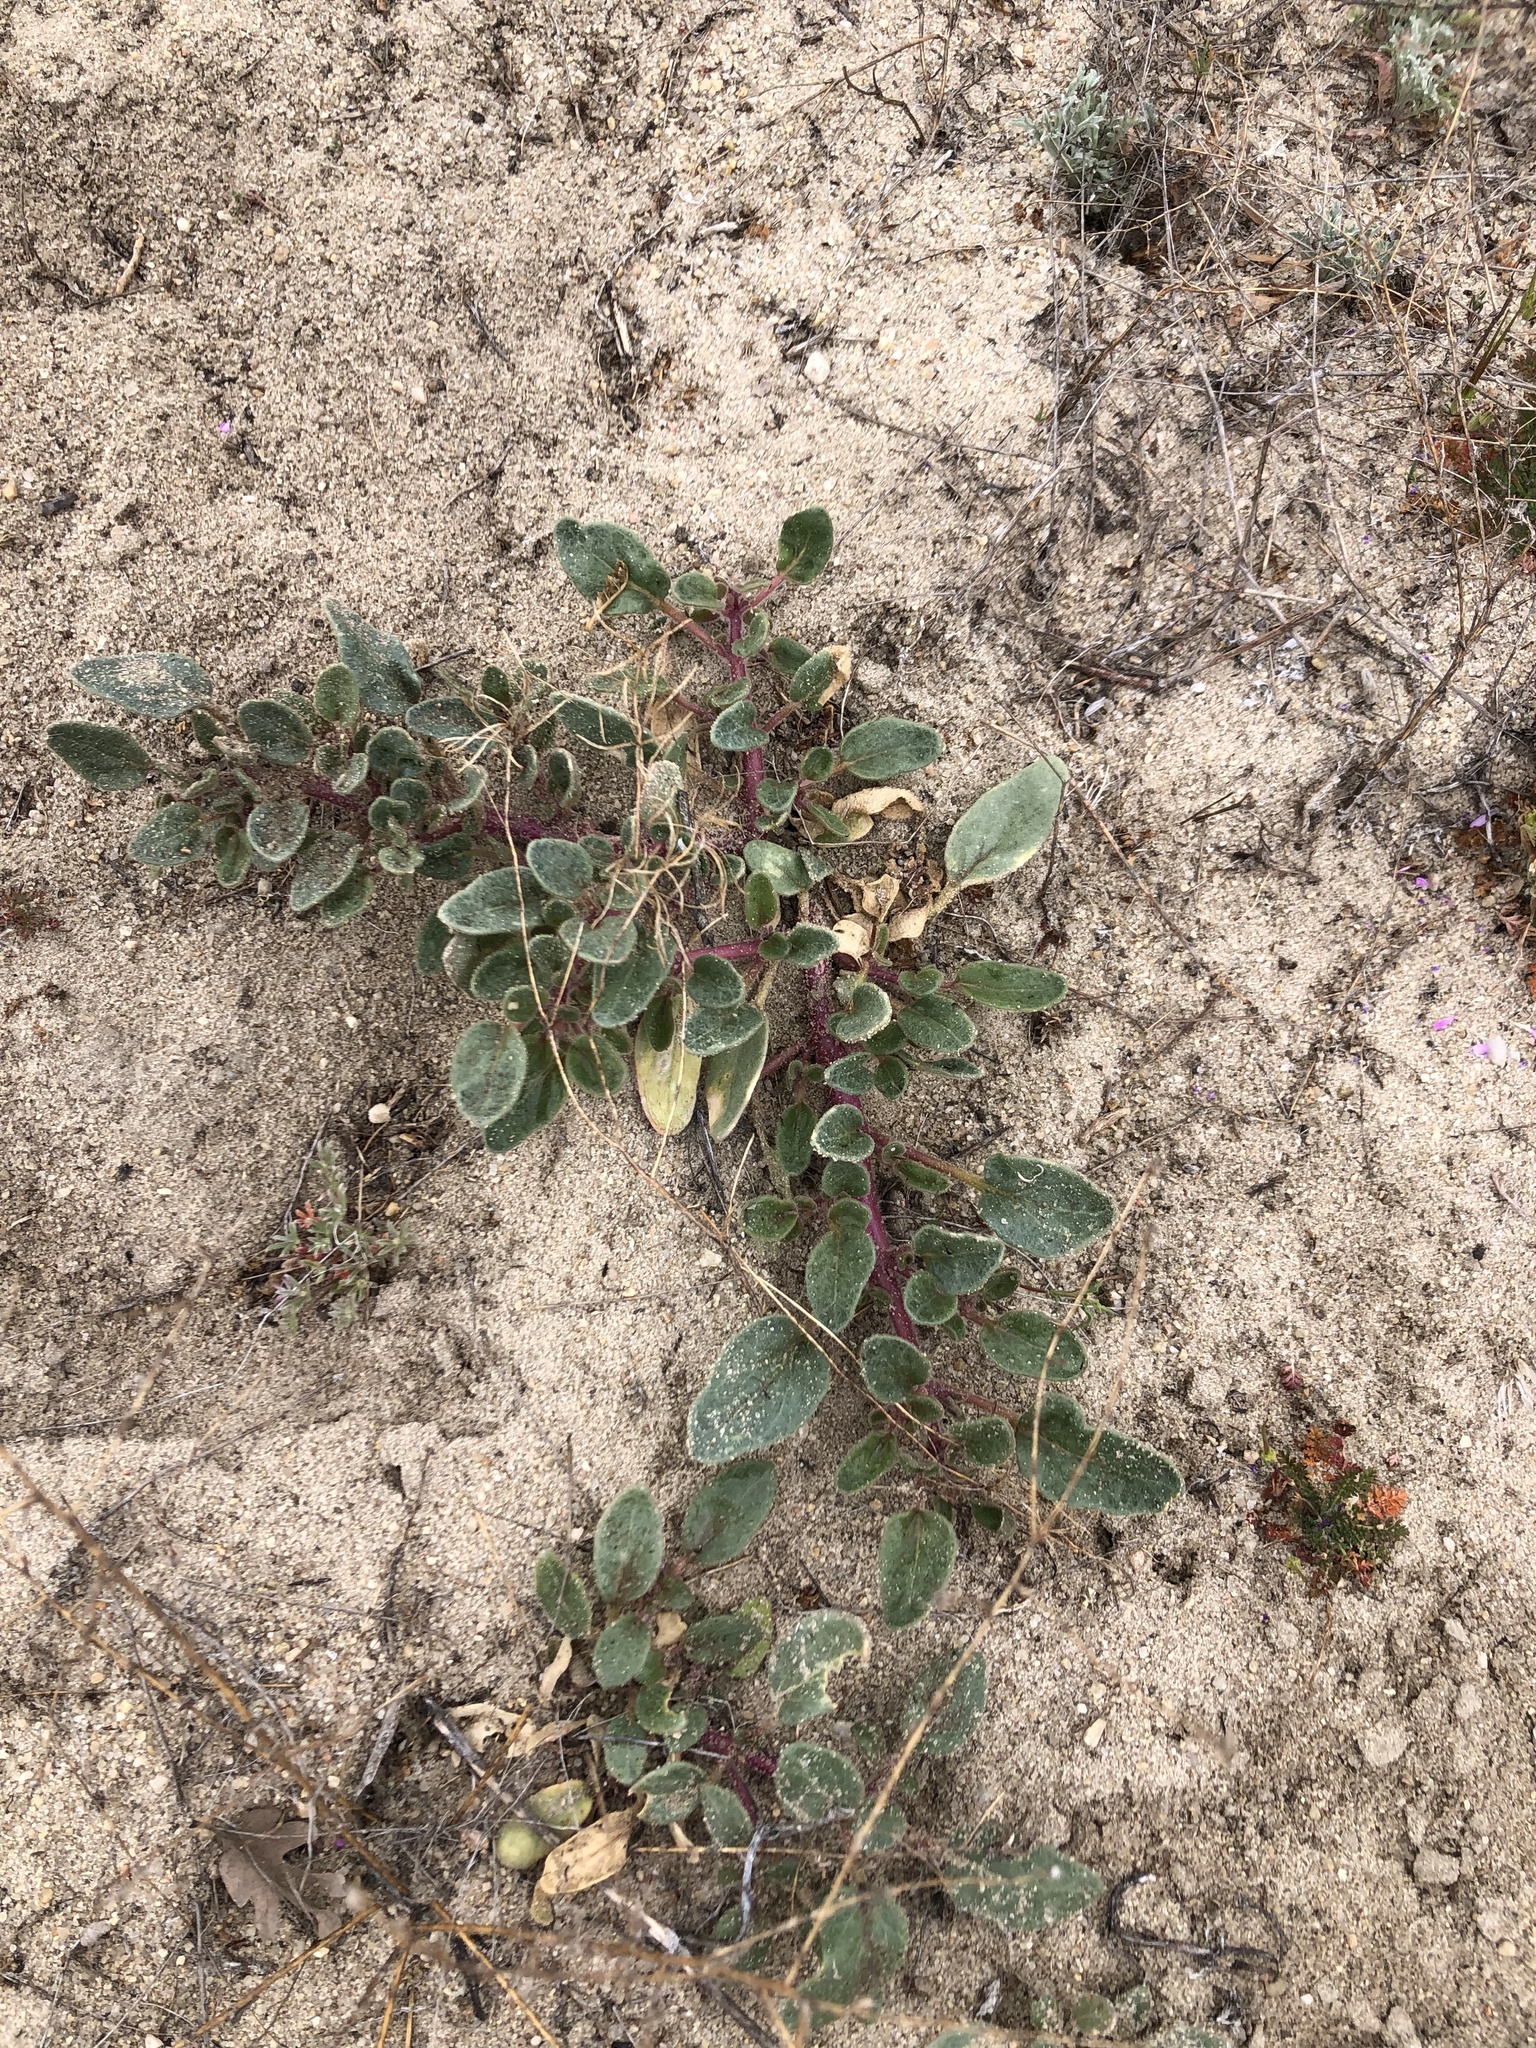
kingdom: Plantae
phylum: Tracheophyta
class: Magnoliopsida
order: Caryophyllales
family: Nyctaginaceae
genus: Abronia
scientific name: Abronia pogonantha
